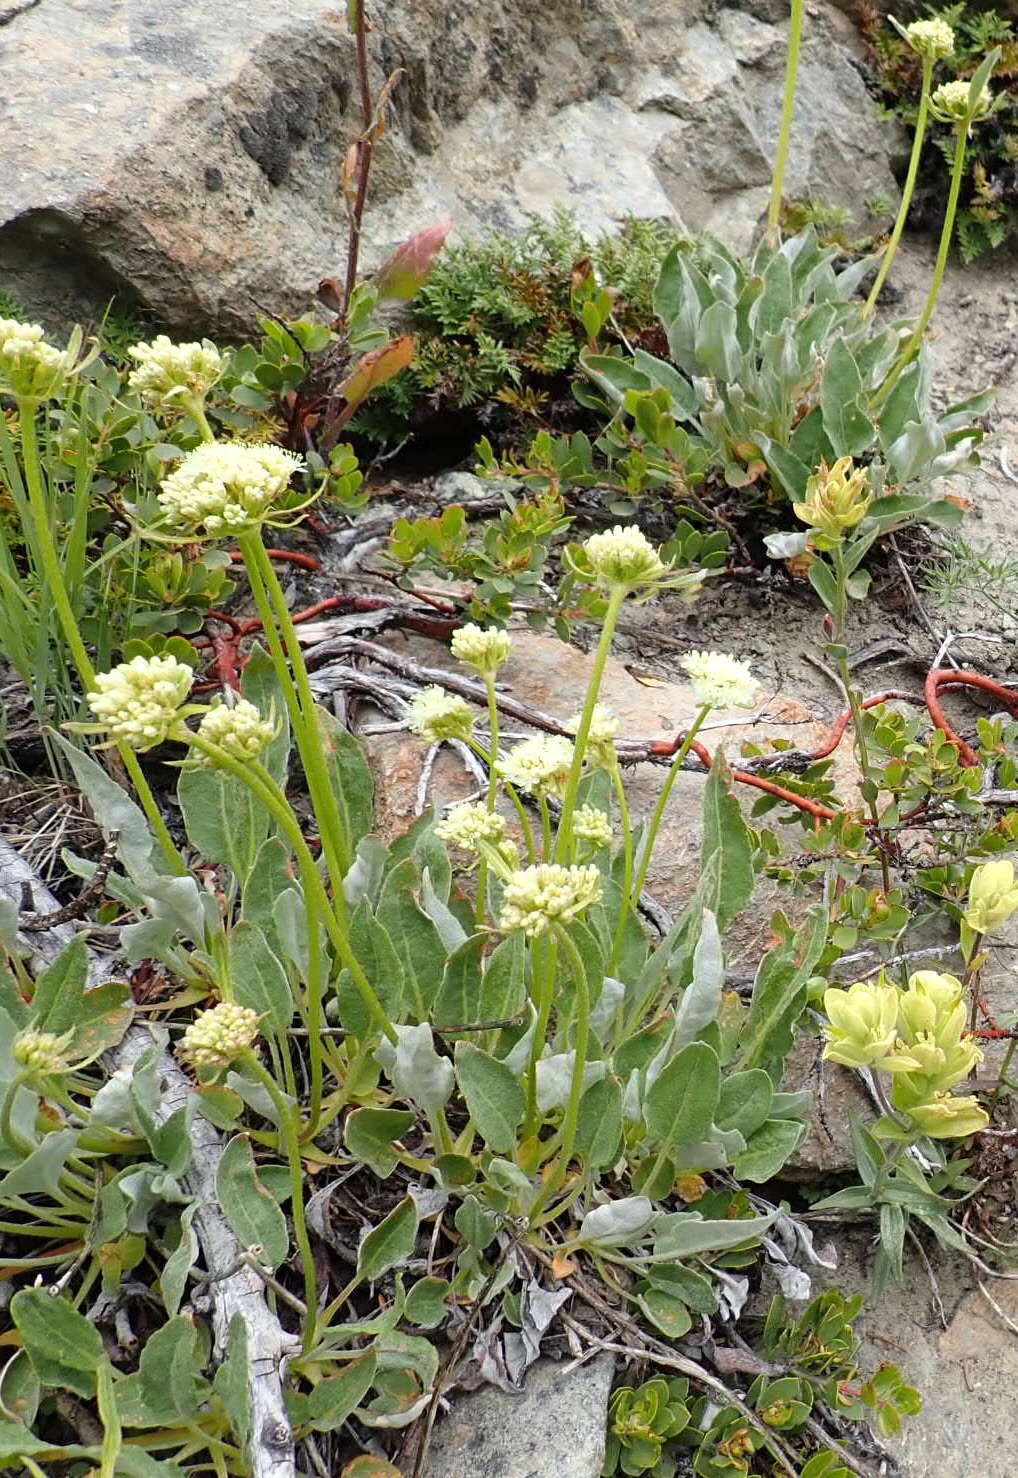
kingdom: Plantae
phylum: Tracheophyta
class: Magnoliopsida
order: Caryophyllales
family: Polygonaceae
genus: Eriogonum
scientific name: Eriogonum compositum
